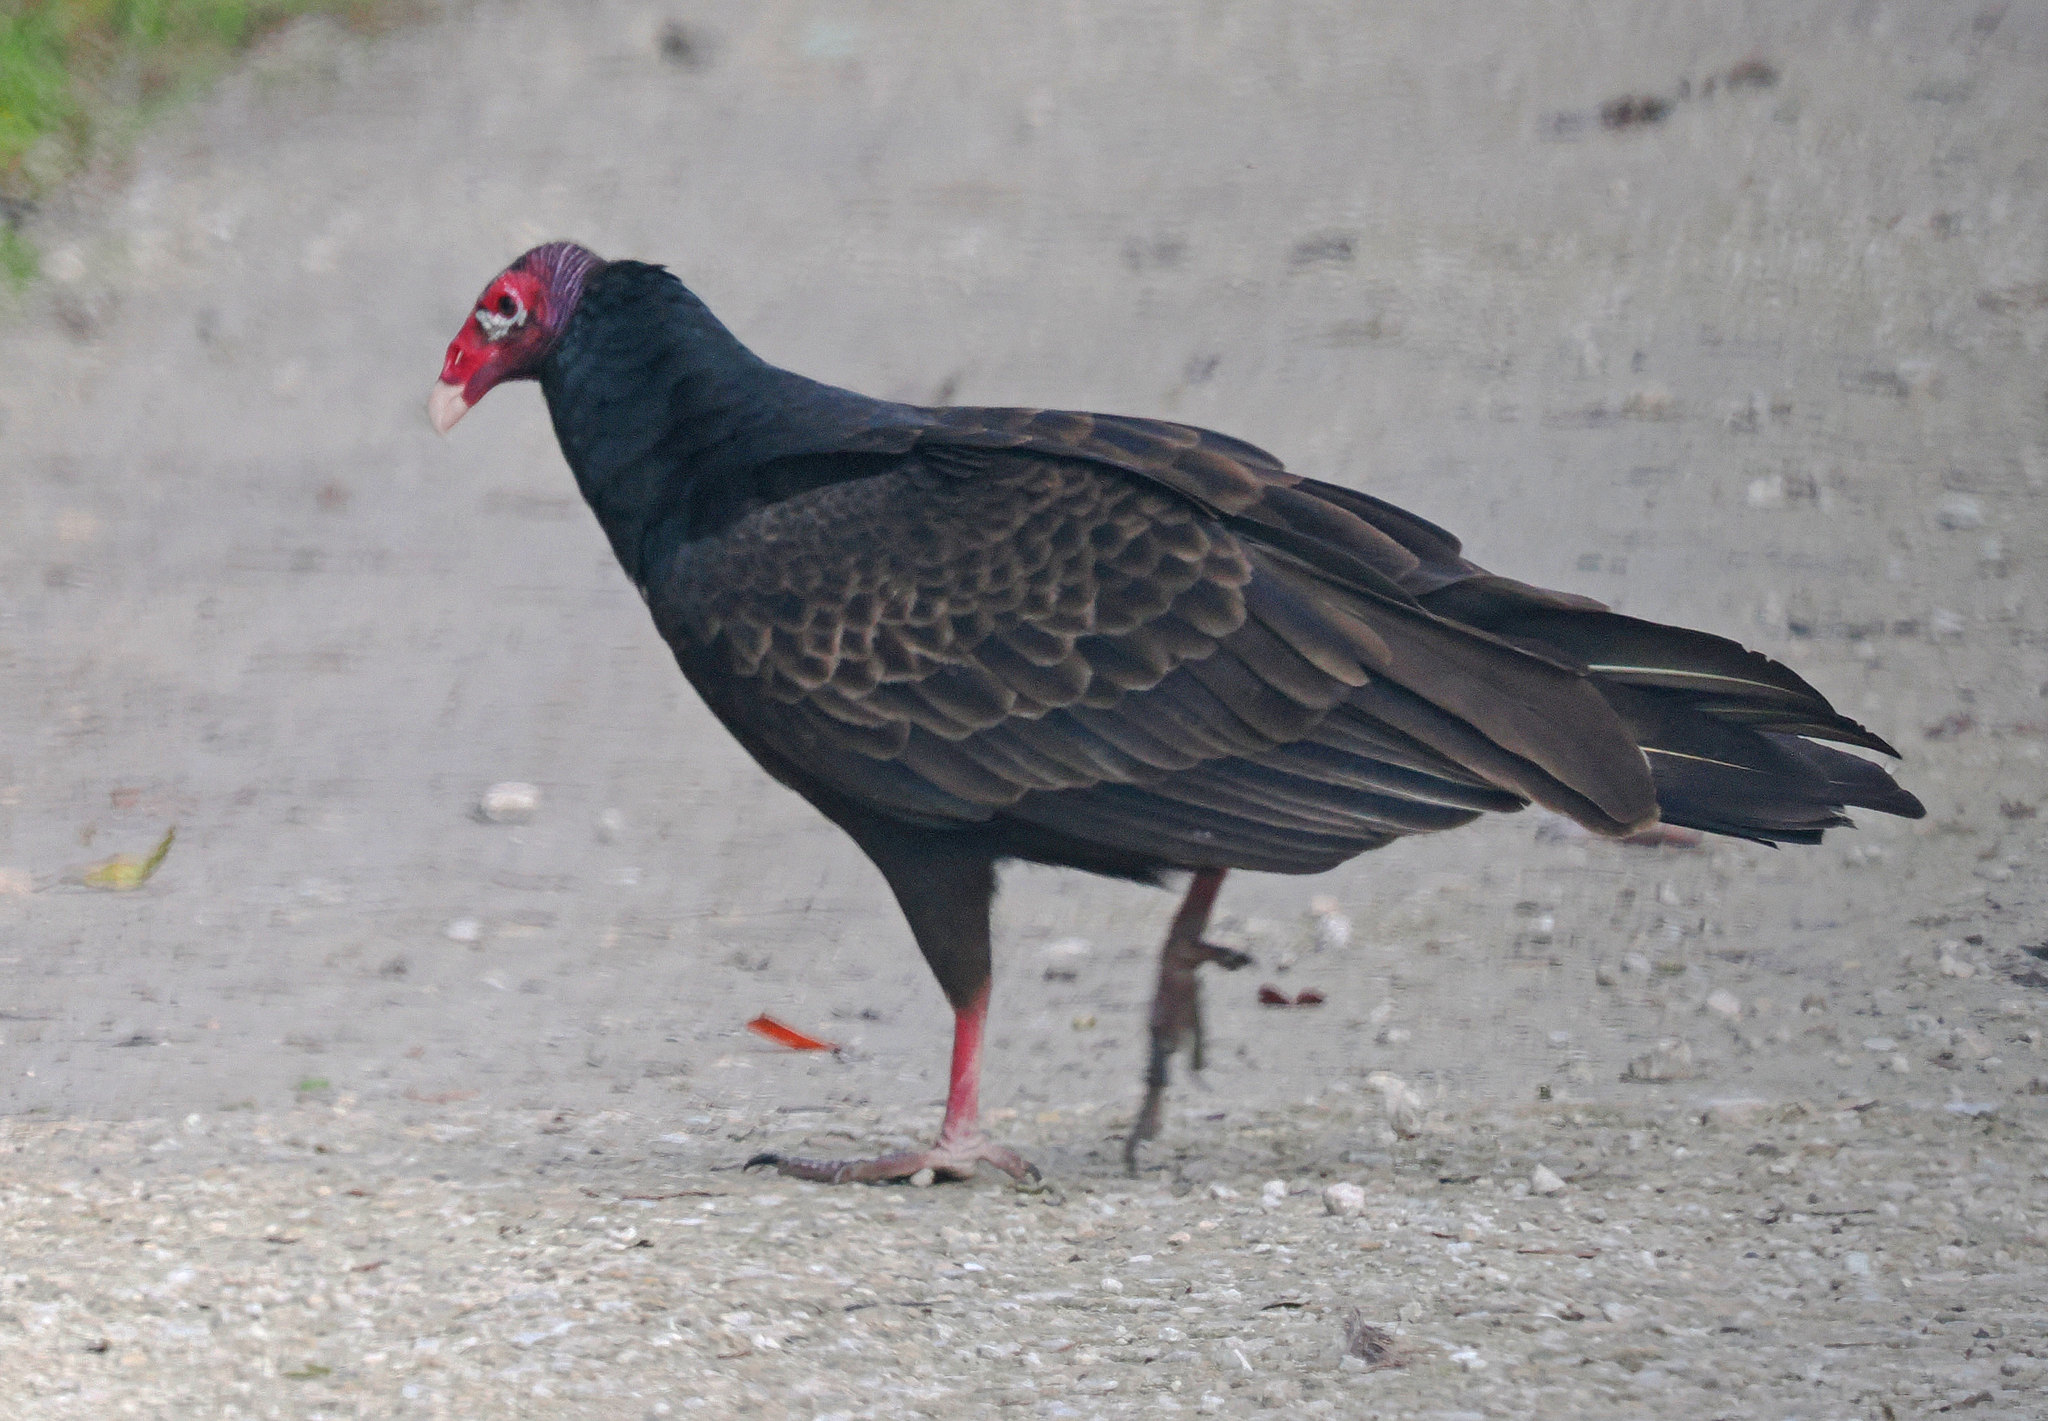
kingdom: Animalia
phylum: Chordata
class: Aves
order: Accipitriformes
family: Cathartidae
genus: Cathartes
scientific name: Cathartes aura
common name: Turkey vulture
